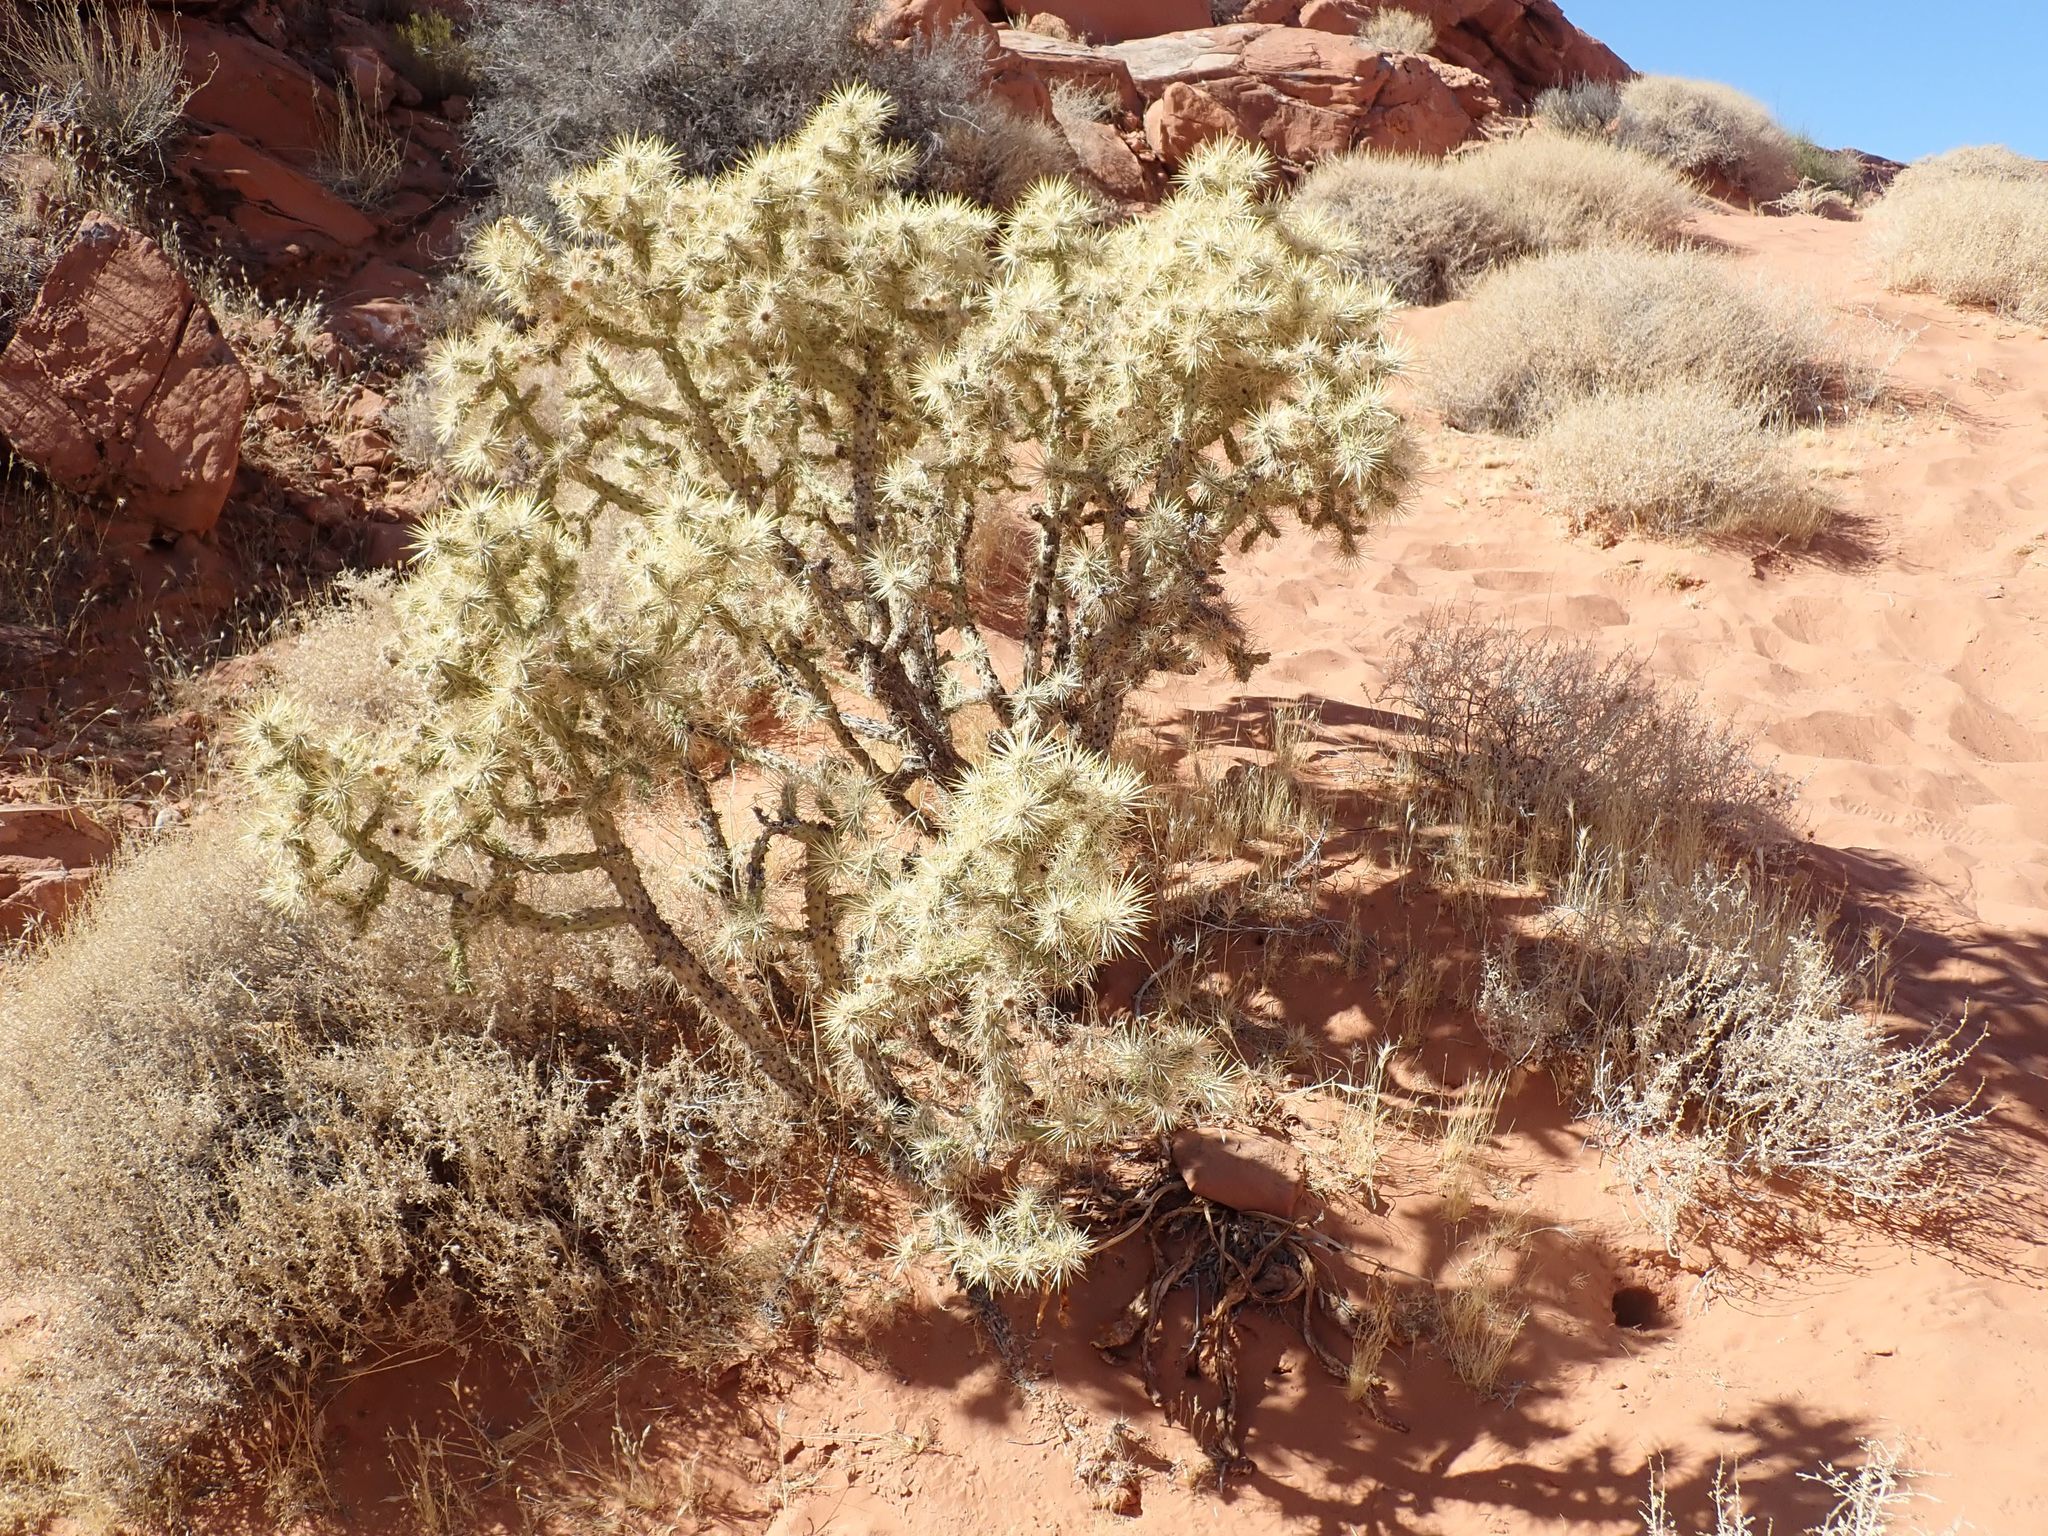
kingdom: Plantae
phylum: Tracheophyta
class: Magnoliopsida
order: Caryophyllales
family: Cactaceae
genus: Cylindropuntia
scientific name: Cylindropuntia echinocarpa
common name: Ground cholla
